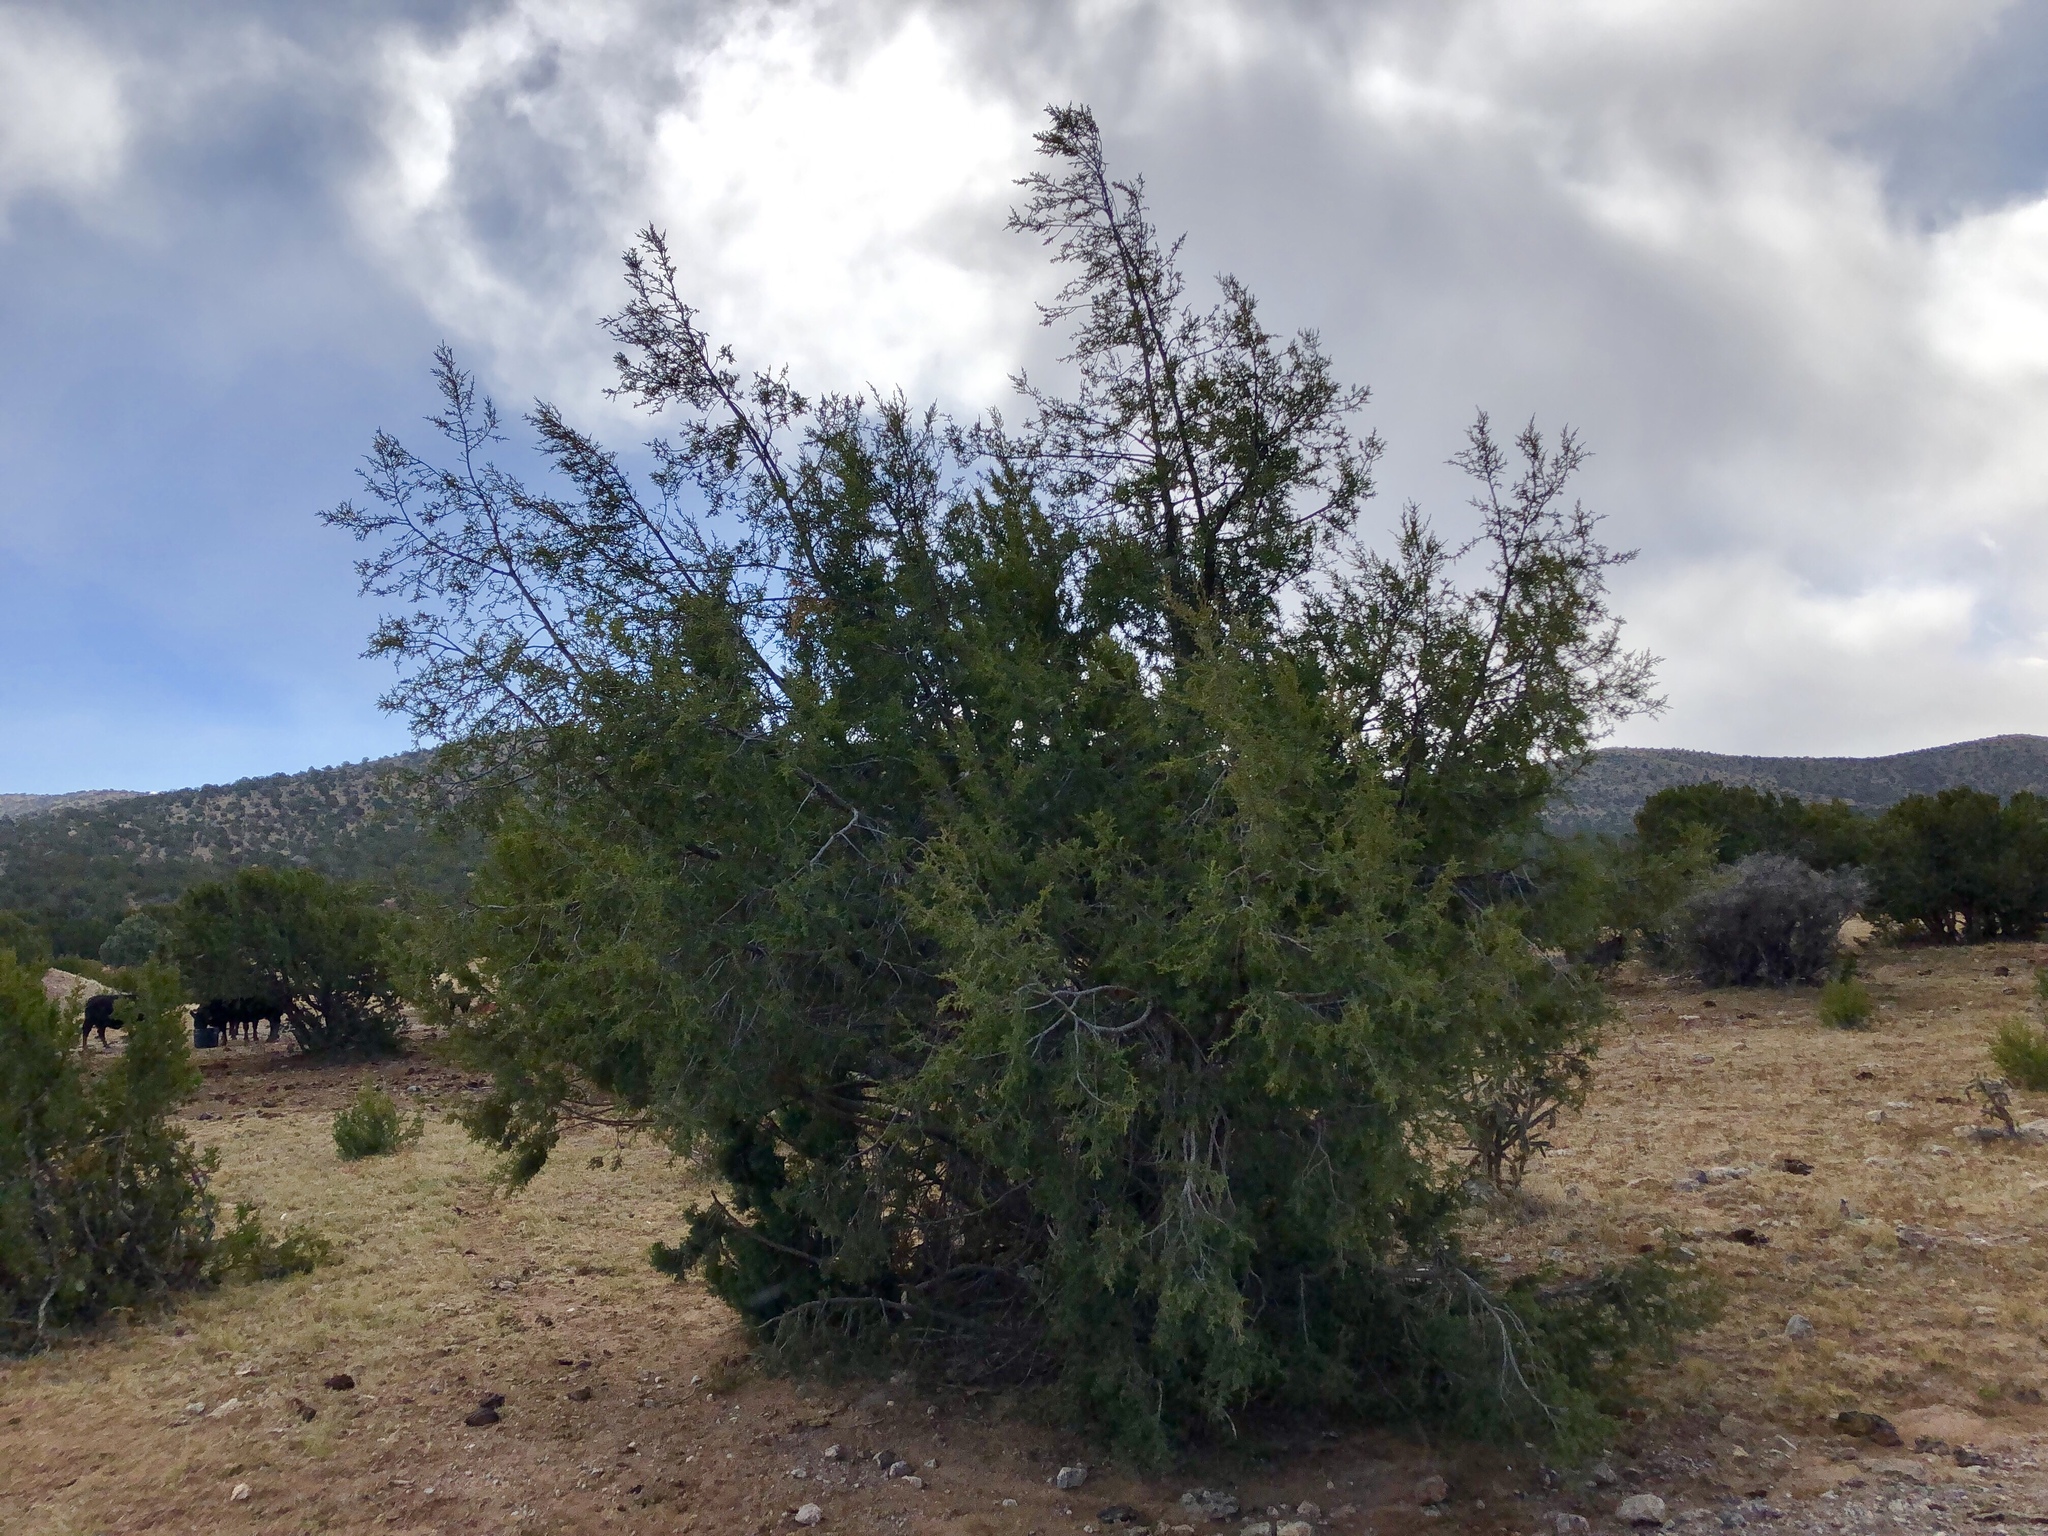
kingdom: Plantae
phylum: Tracheophyta
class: Pinopsida
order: Pinales
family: Cupressaceae
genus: Juniperus
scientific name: Juniperus monosperma
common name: One-seed juniper
